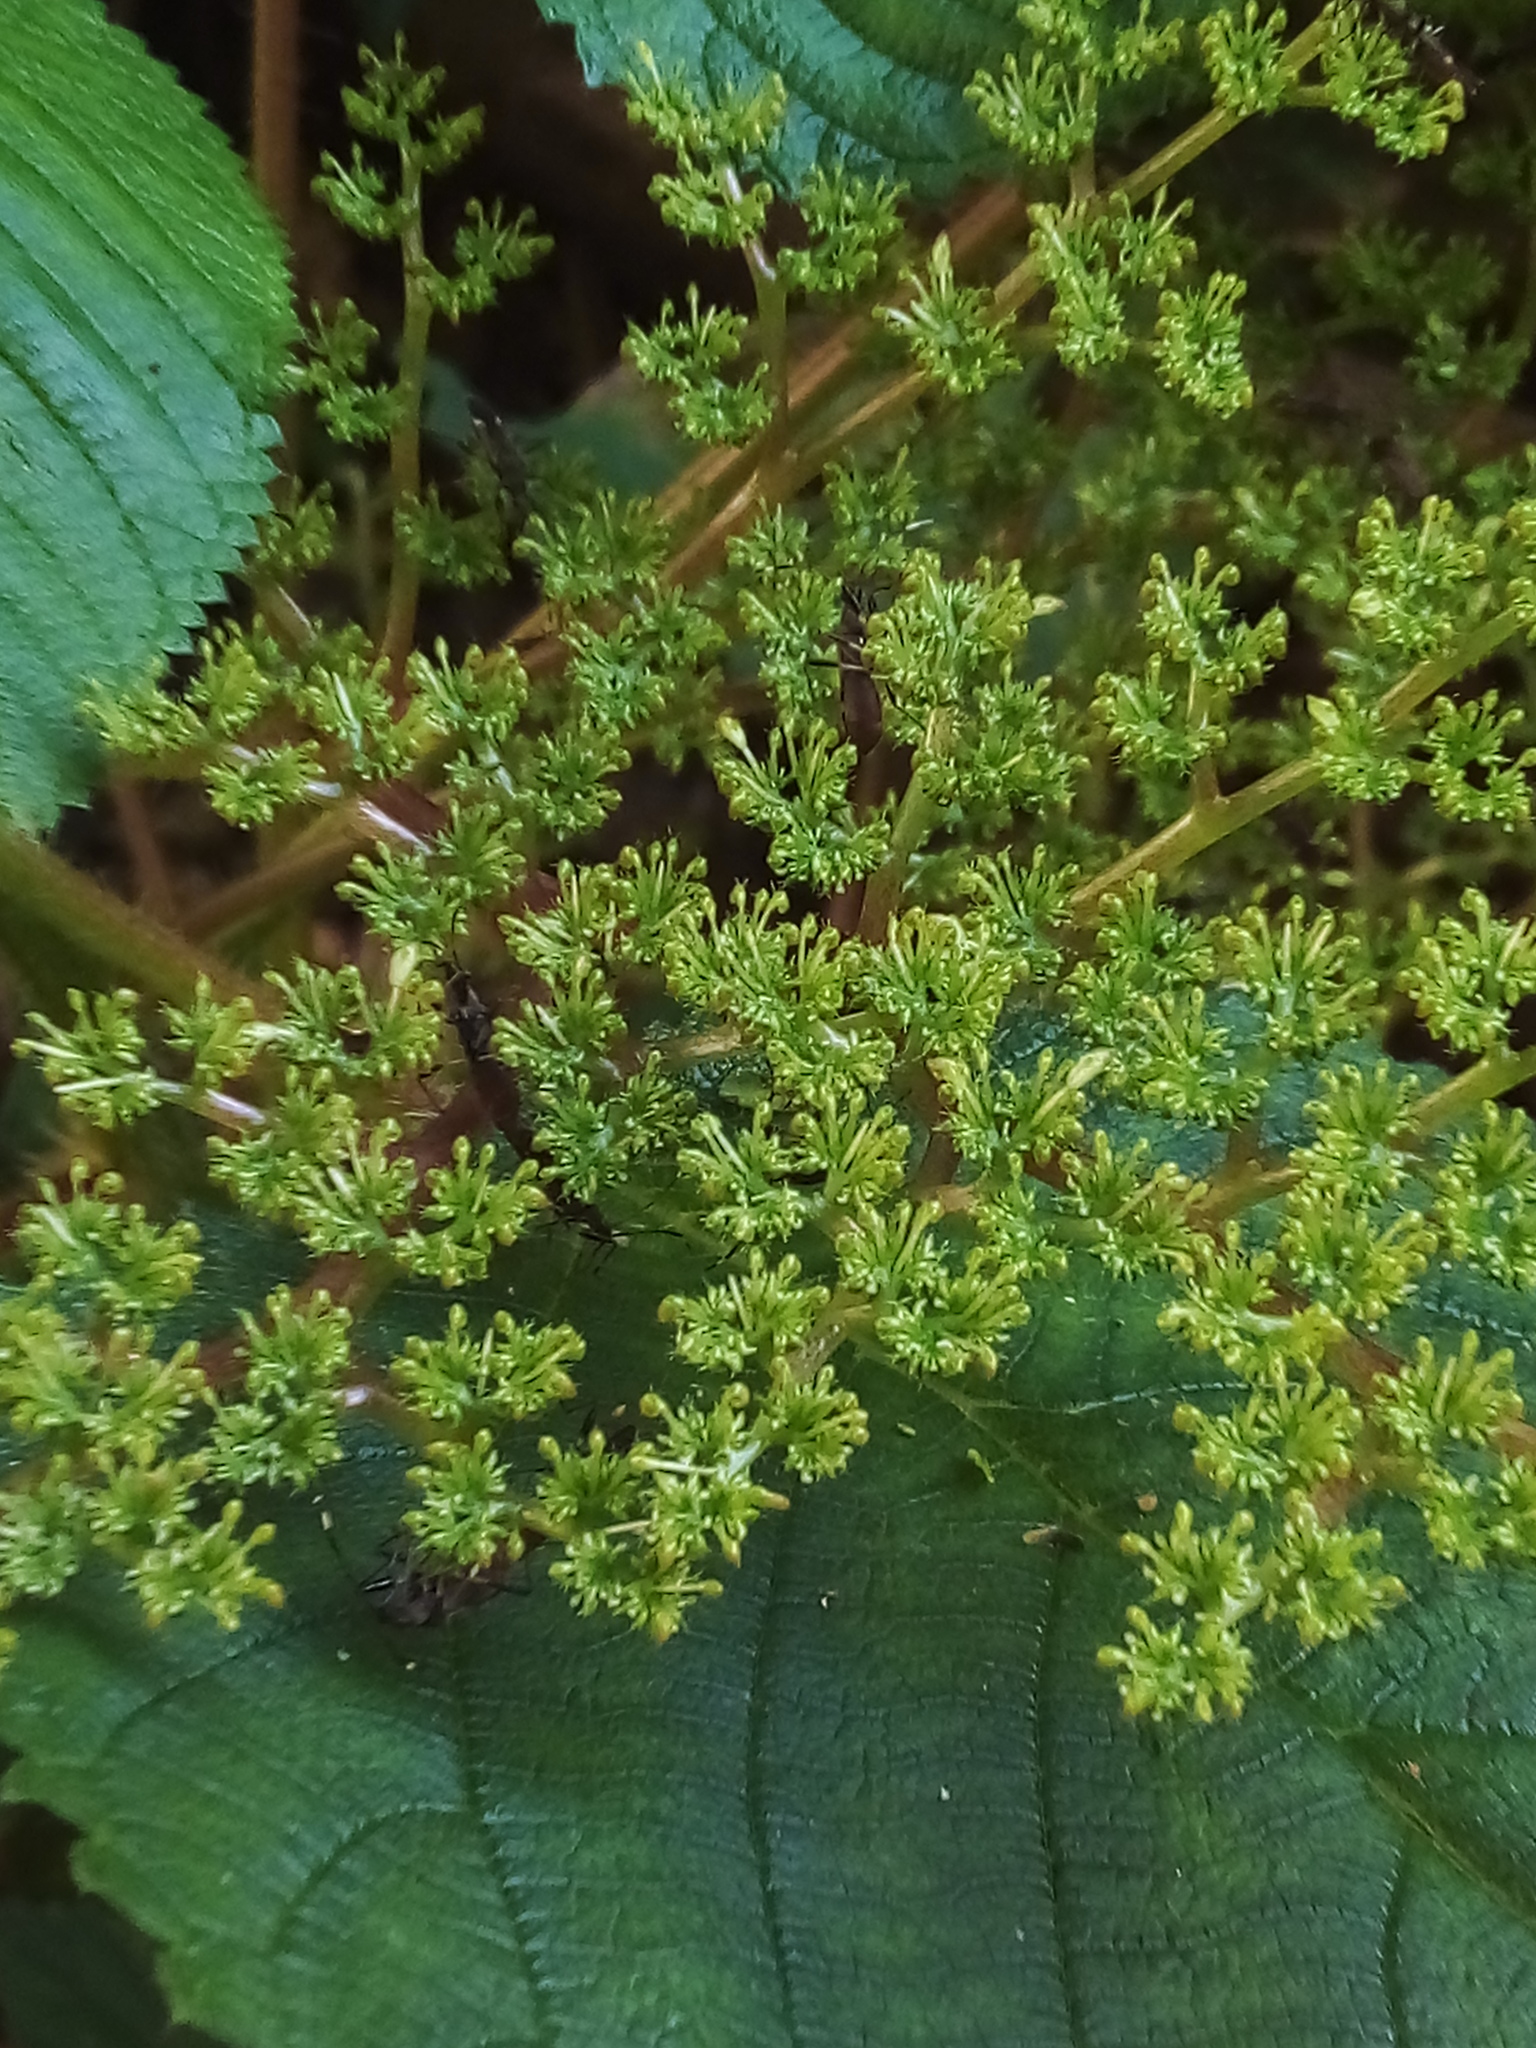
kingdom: Plantae
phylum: Tracheophyta
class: Magnoliopsida
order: Rosales
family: Urticaceae
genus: Laportea
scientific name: Laportea aestuans
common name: West indian woodnettle
